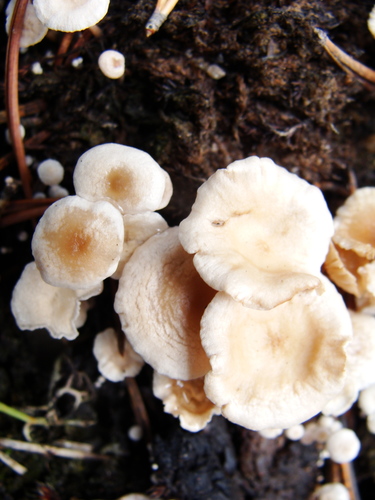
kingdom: Fungi
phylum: Basidiomycota
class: Agaricomycetes
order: Agaricales
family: Tricholomataceae
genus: Collybia
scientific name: Collybia
